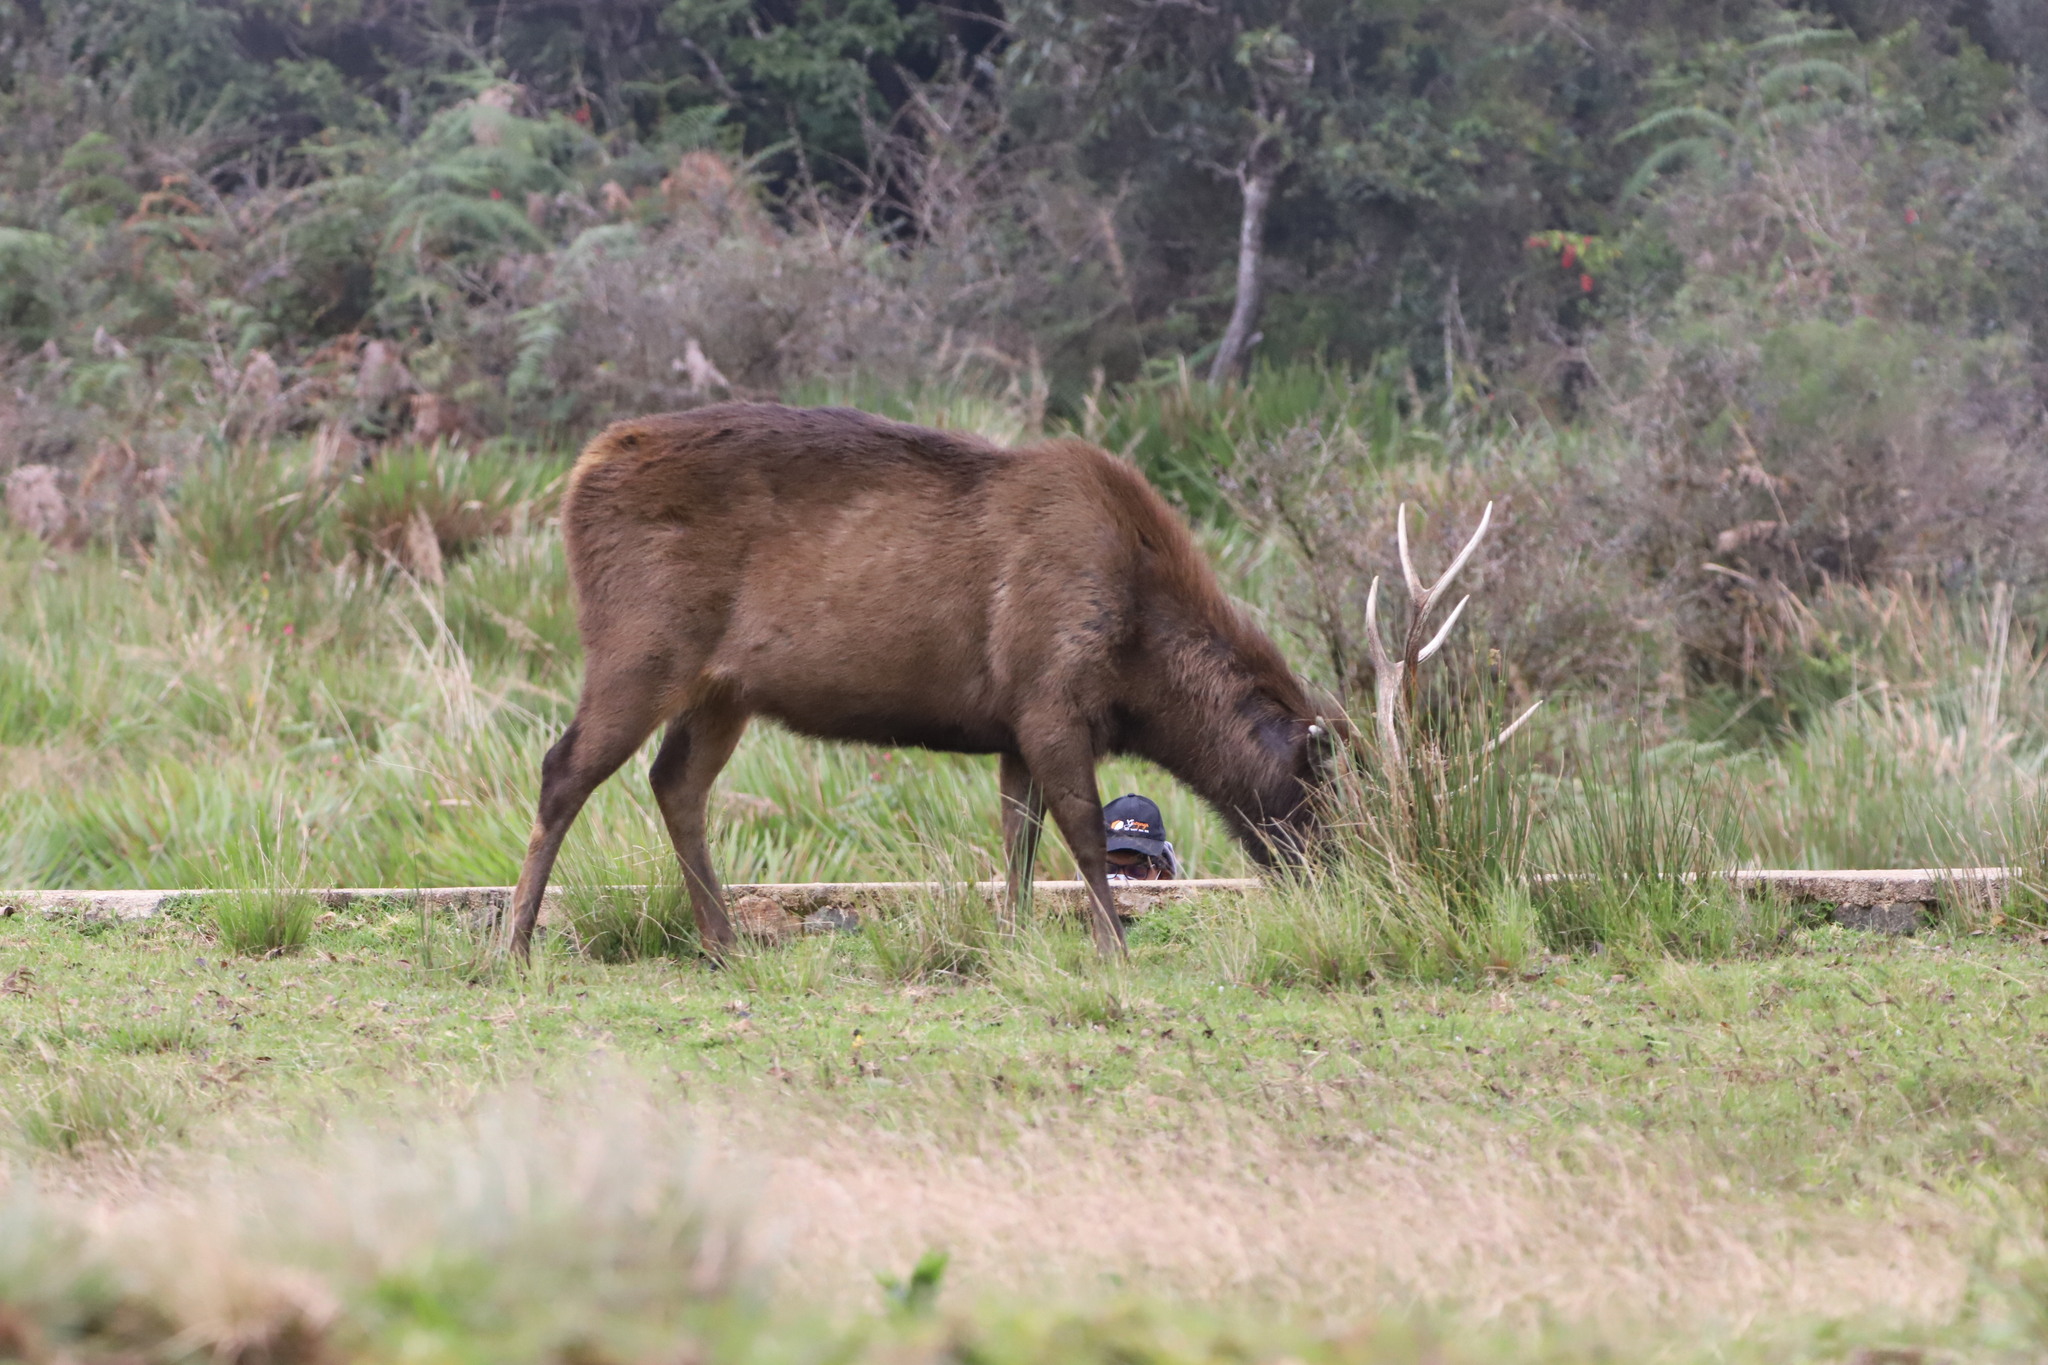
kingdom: Animalia
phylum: Chordata
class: Mammalia
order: Artiodactyla
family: Cervidae
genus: Rusa
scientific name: Rusa unicolor
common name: Sambar
